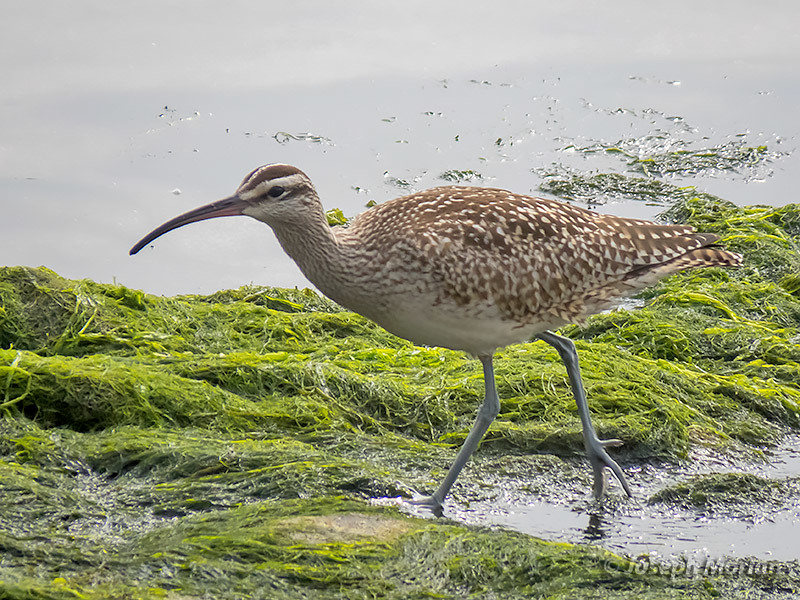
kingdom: Animalia
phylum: Chordata
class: Aves
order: Charadriiformes
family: Scolopacidae
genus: Numenius
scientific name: Numenius phaeopus
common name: Whimbrel
